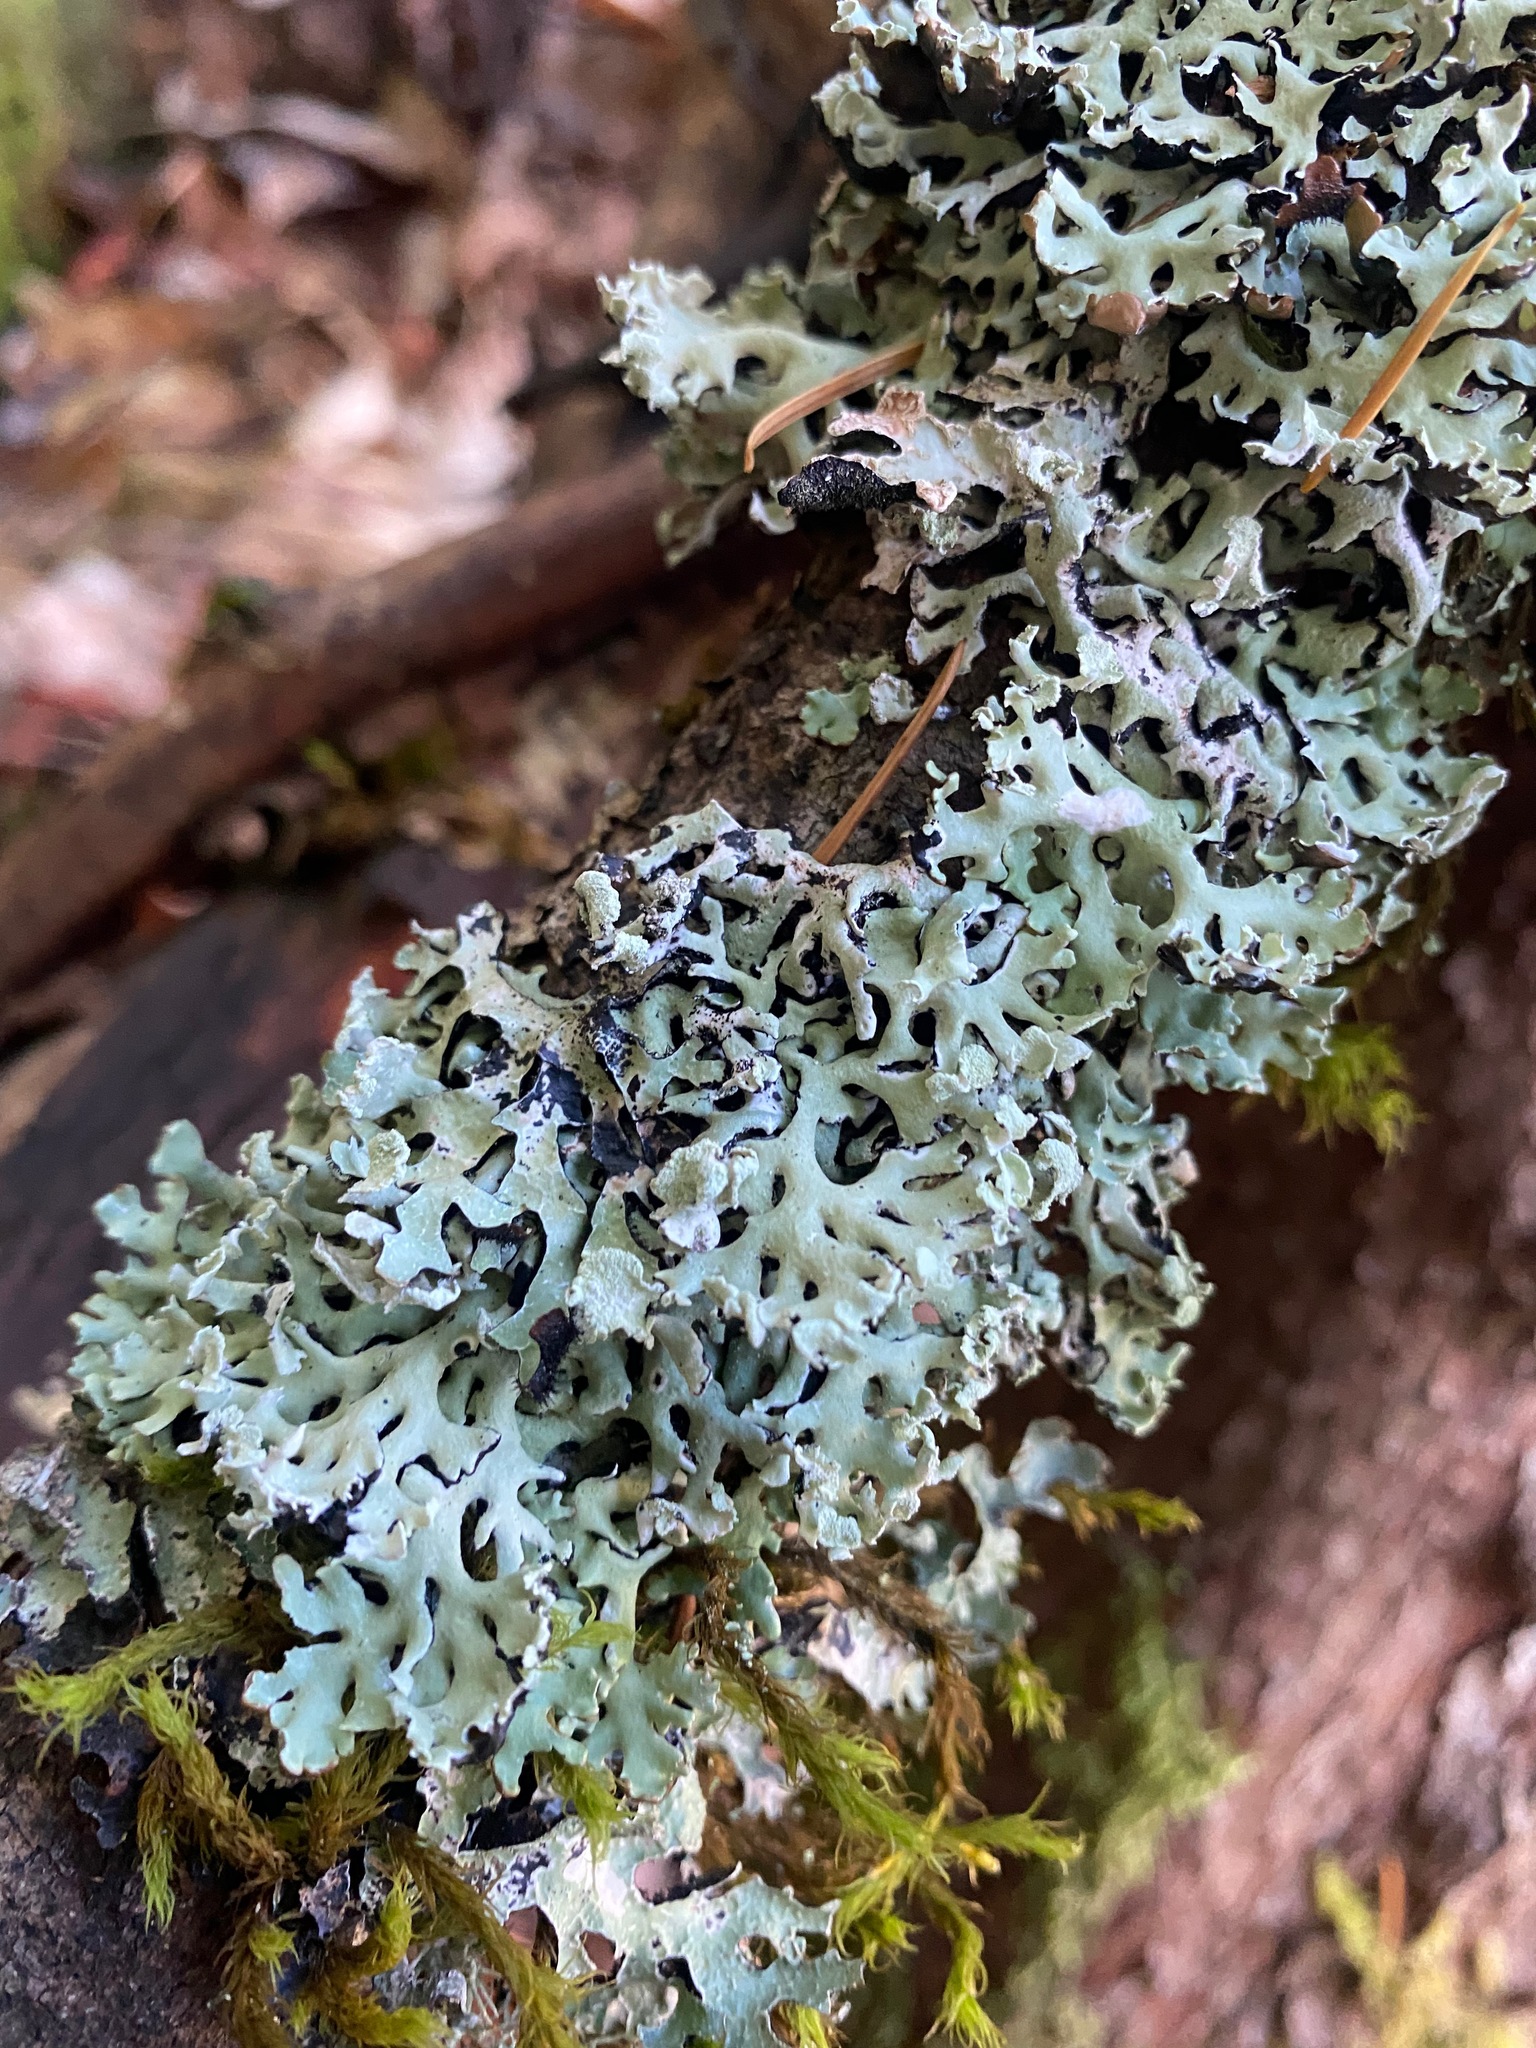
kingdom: Fungi
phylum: Ascomycota
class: Lecanoromycetes
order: Lecanorales
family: Parmeliaceae
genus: Hypogymnia
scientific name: Hypogymnia physodes
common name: Dark crottle
